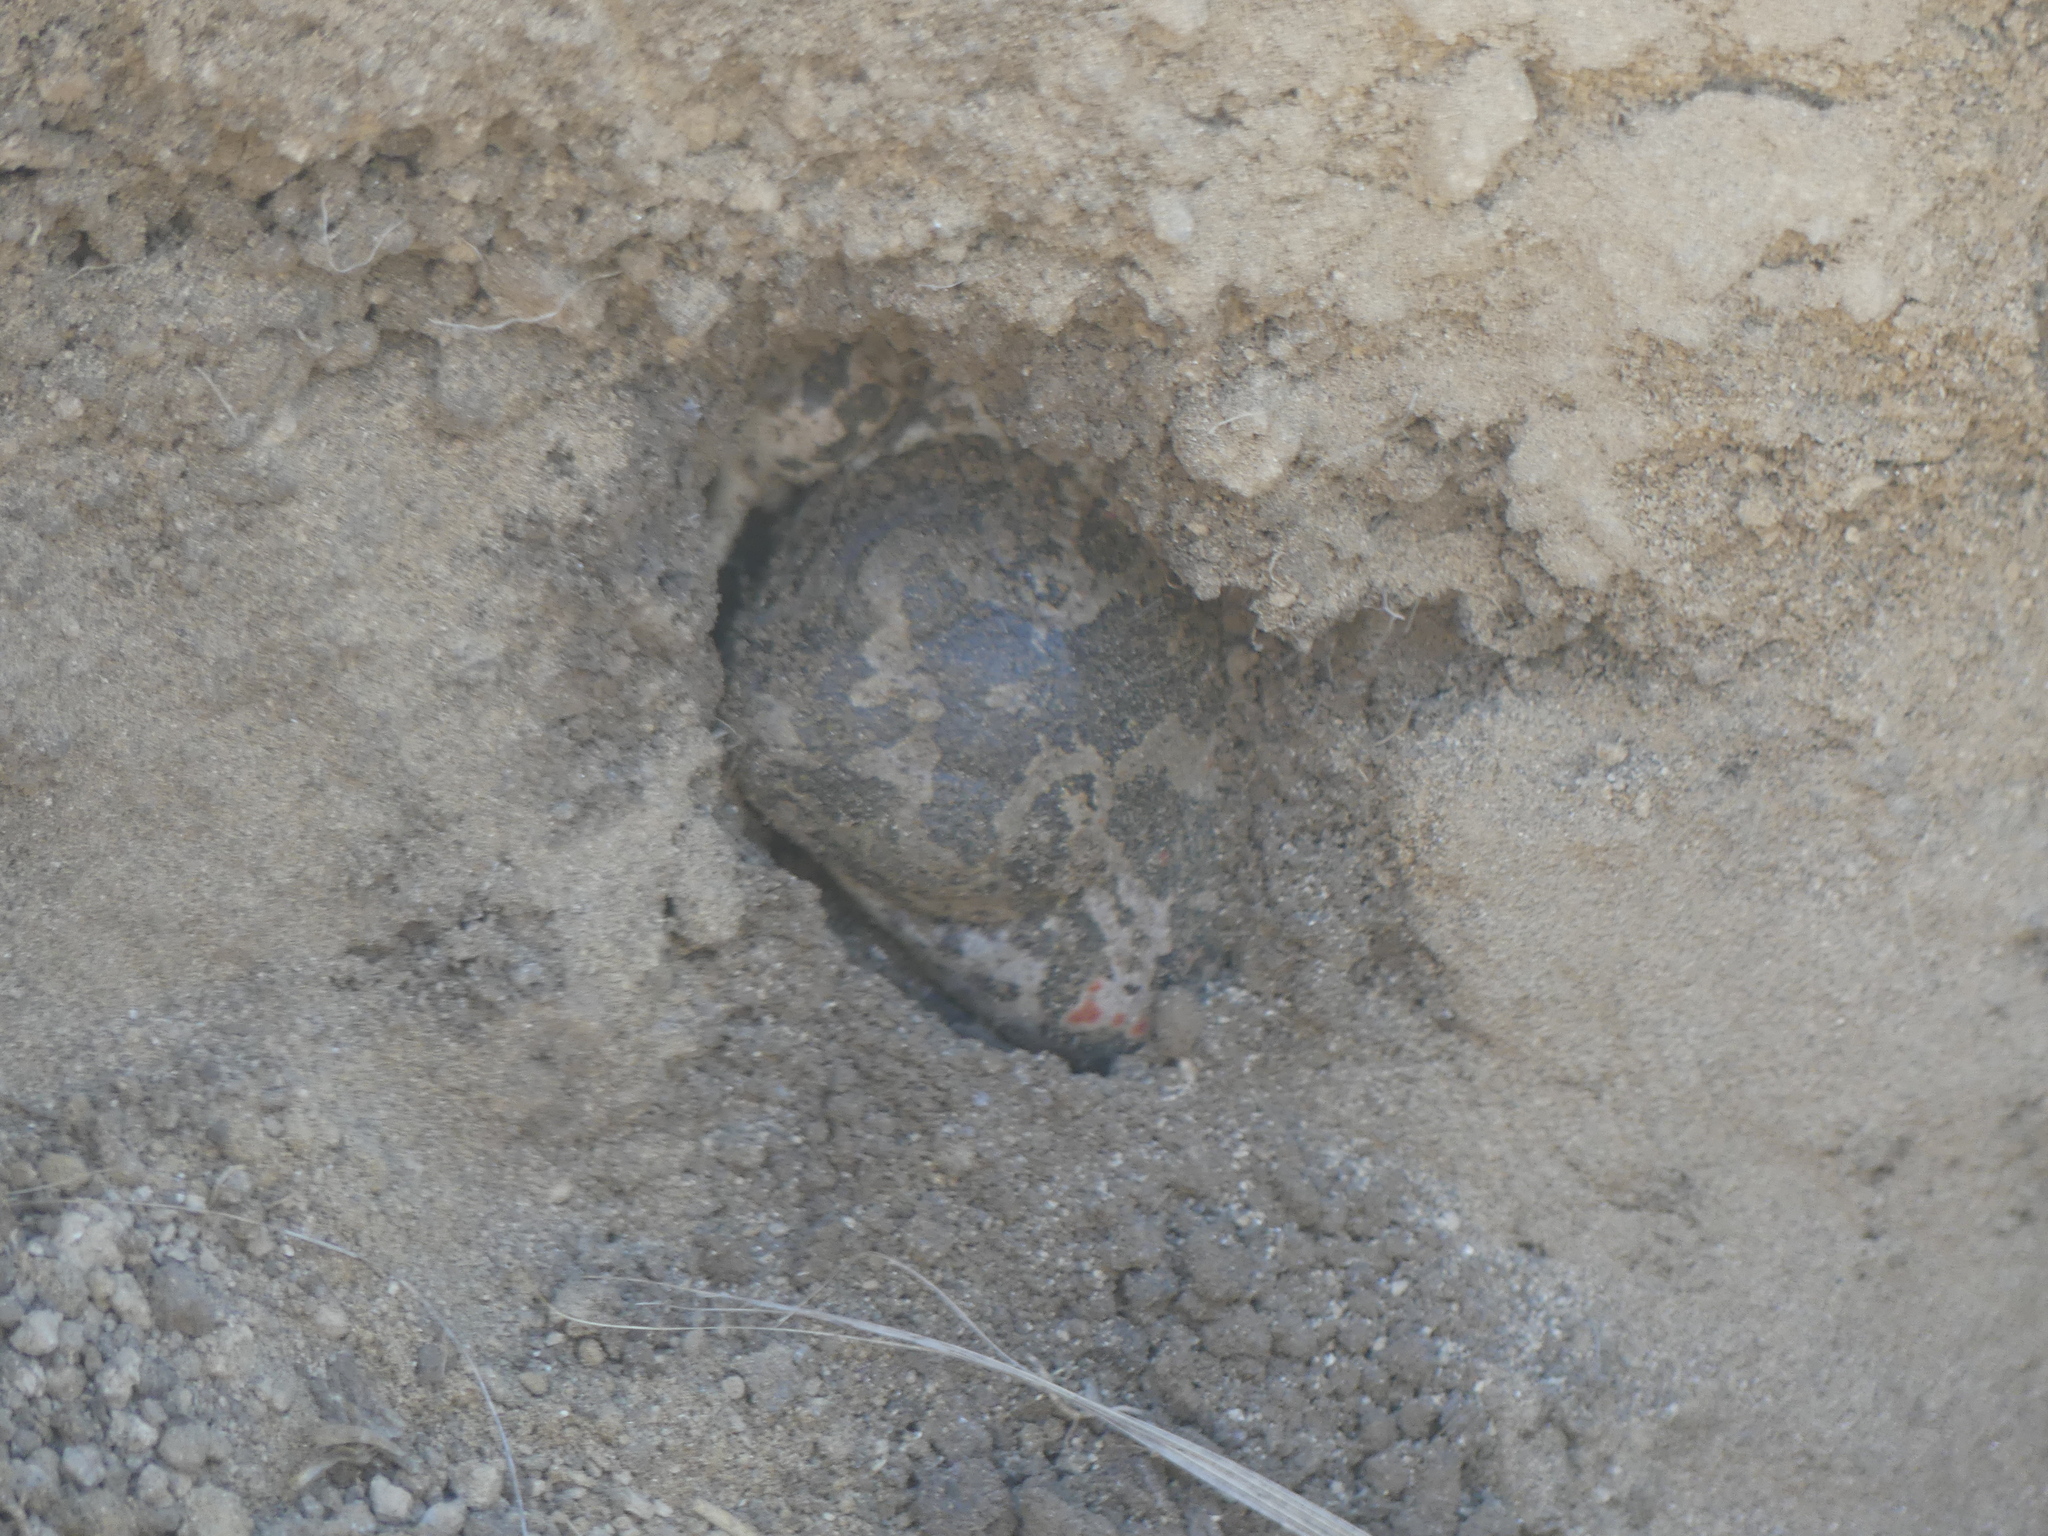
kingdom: Animalia
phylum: Chordata
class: Amphibia
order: Anura
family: Pelobatidae
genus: Pelobates
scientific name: Pelobates balcanicus
